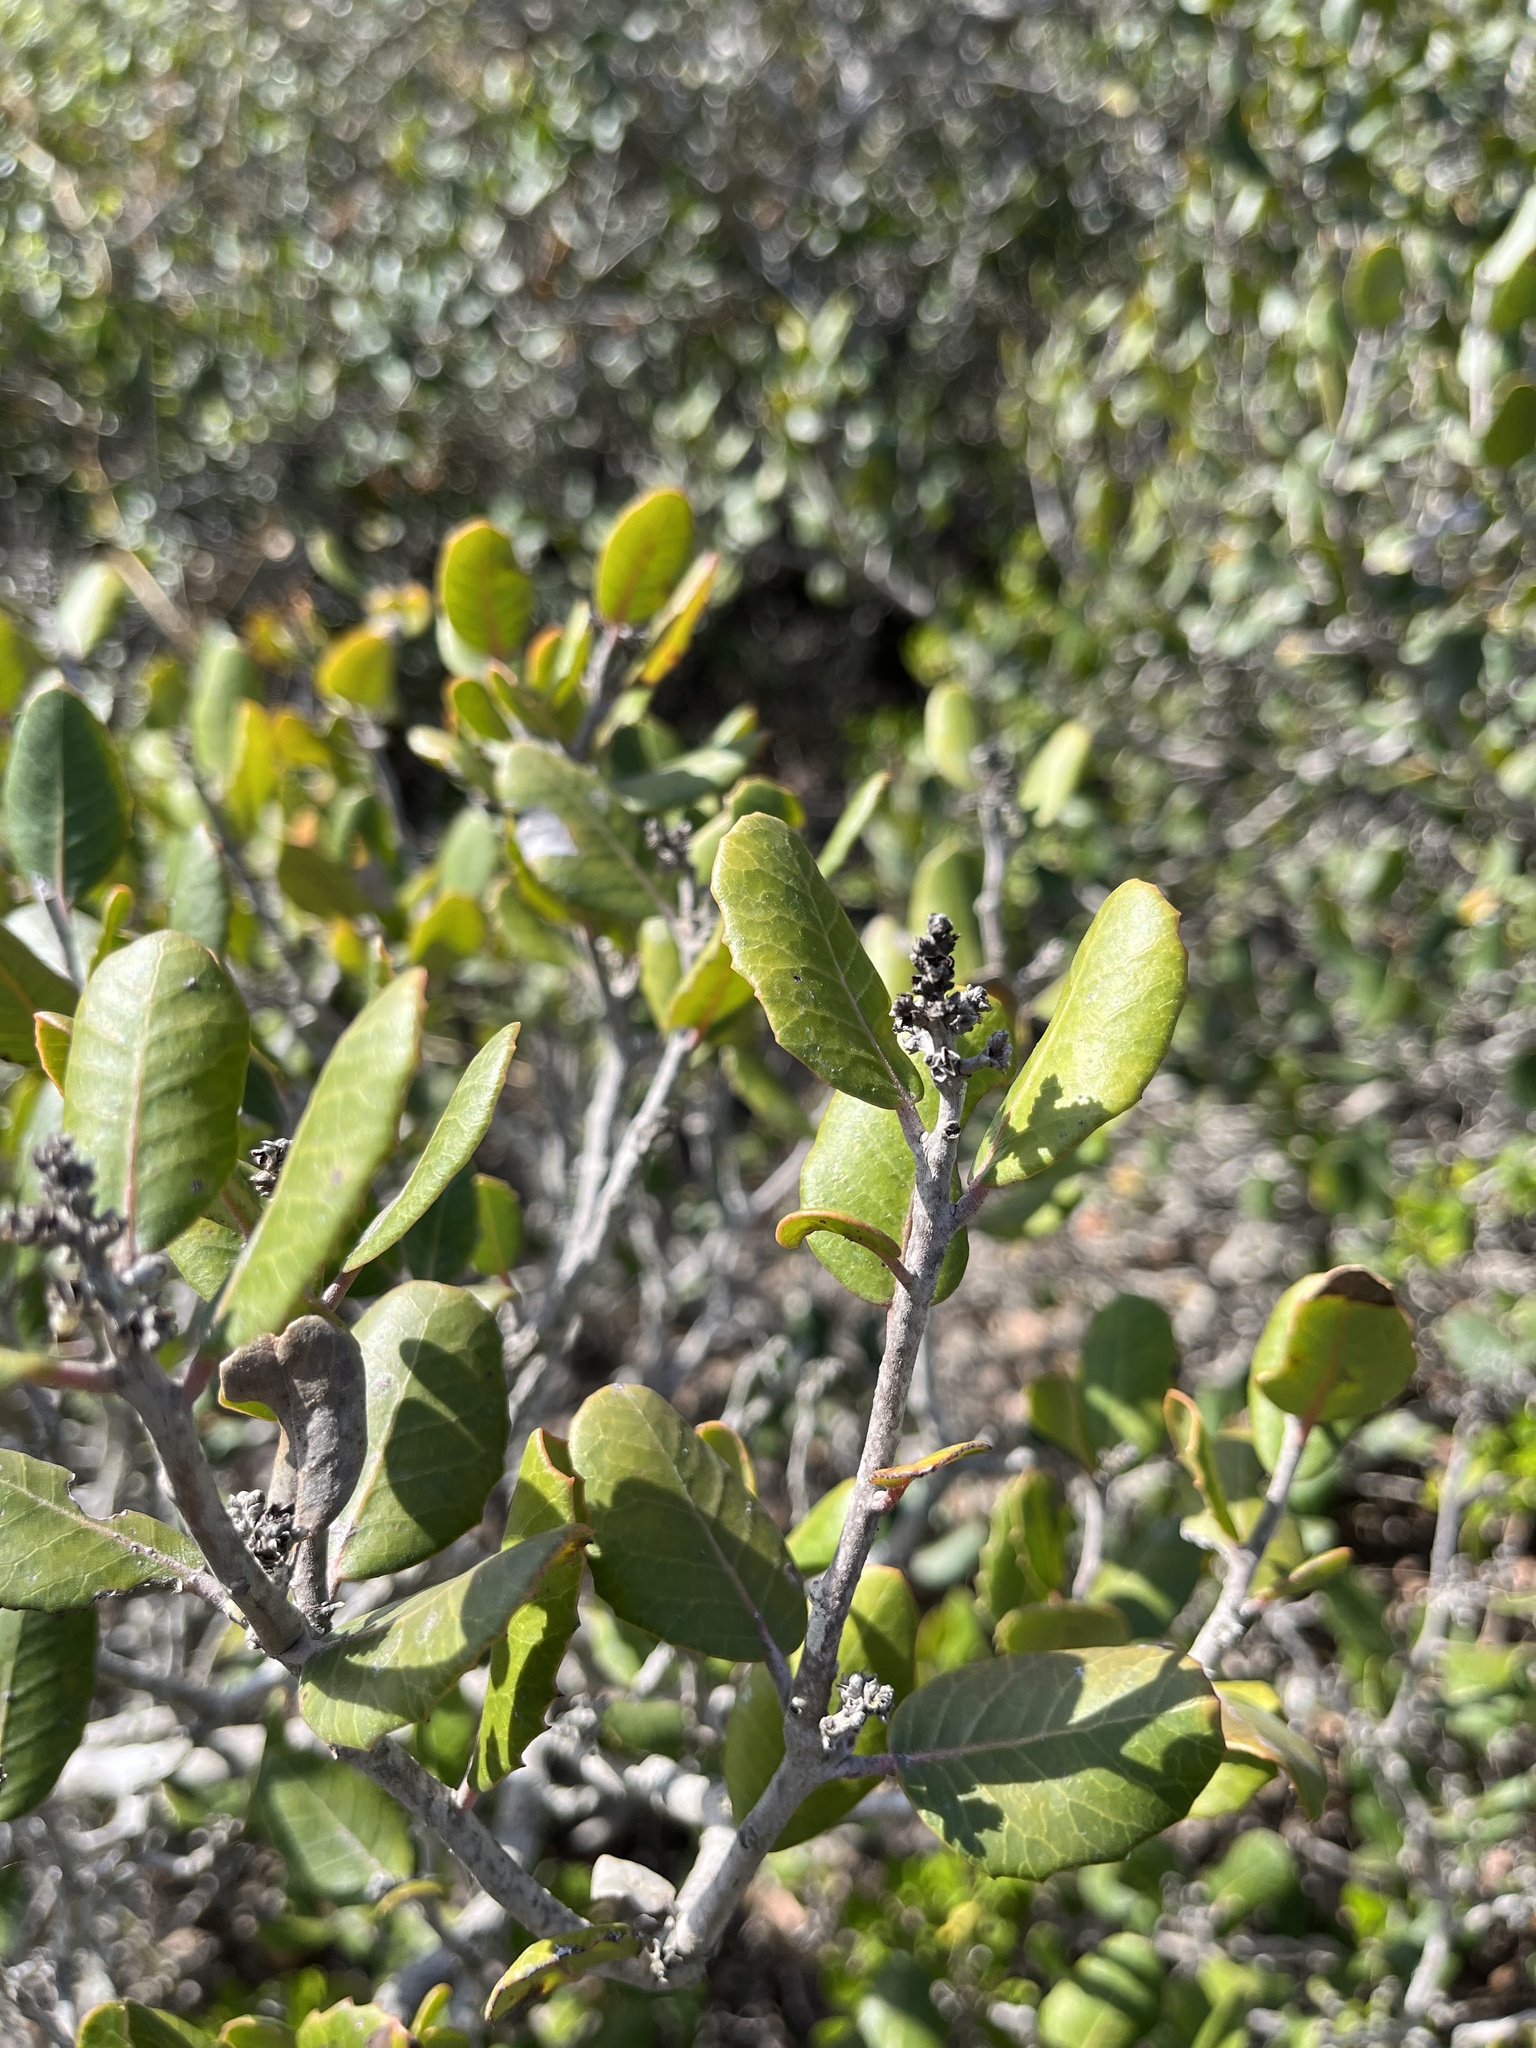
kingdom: Plantae
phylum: Tracheophyta
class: Magnoliopsida
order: Sapindales
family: Anacardiaceae
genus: Rhus
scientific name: Rhus integrifolia
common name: Lemonade sumac
